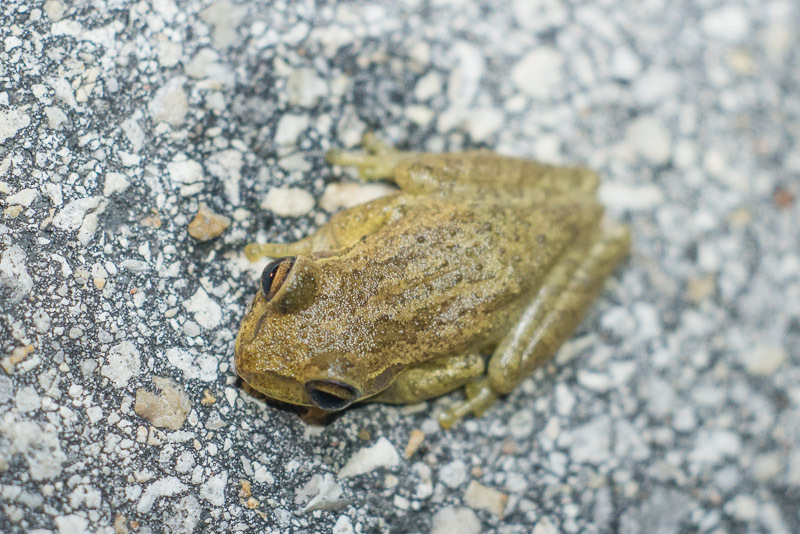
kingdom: Animalia
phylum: Chordata
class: Amphibia
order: Anura
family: Hylidae
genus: Osteopilus
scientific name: Osteopilus septentrionalis
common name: Cuban treefrog
